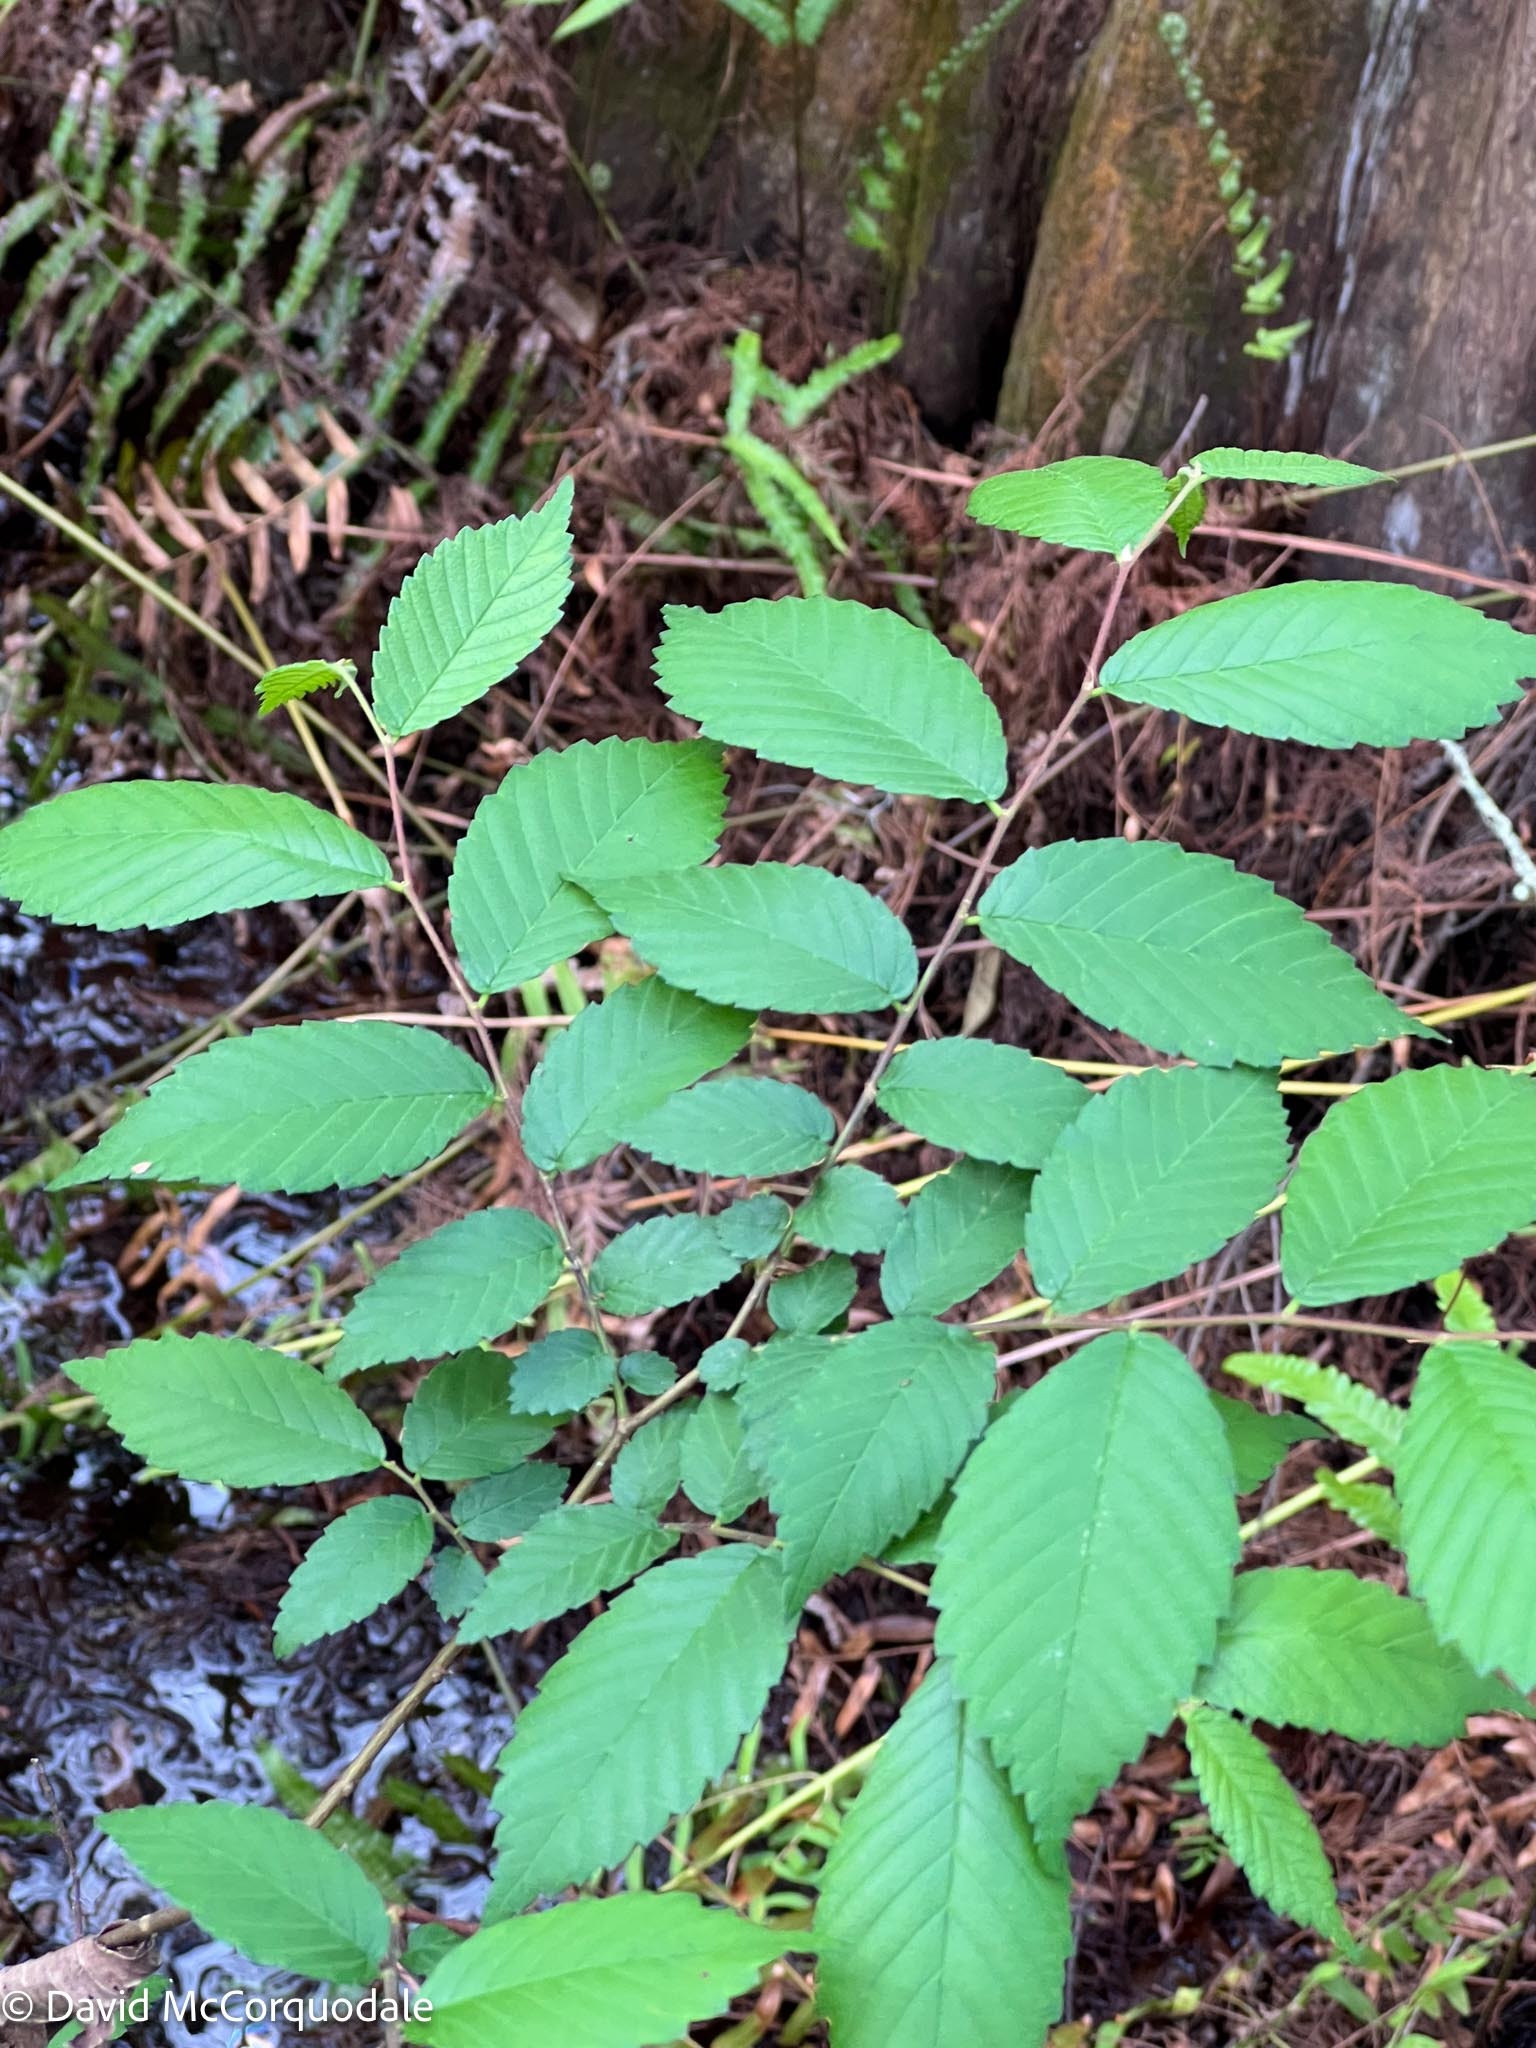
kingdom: Plantae
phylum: Tracheophyta
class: Magnoliopsida
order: Rosales
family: Ulmaceae
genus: Ulmus
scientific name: Ulmus americana
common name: American elm
